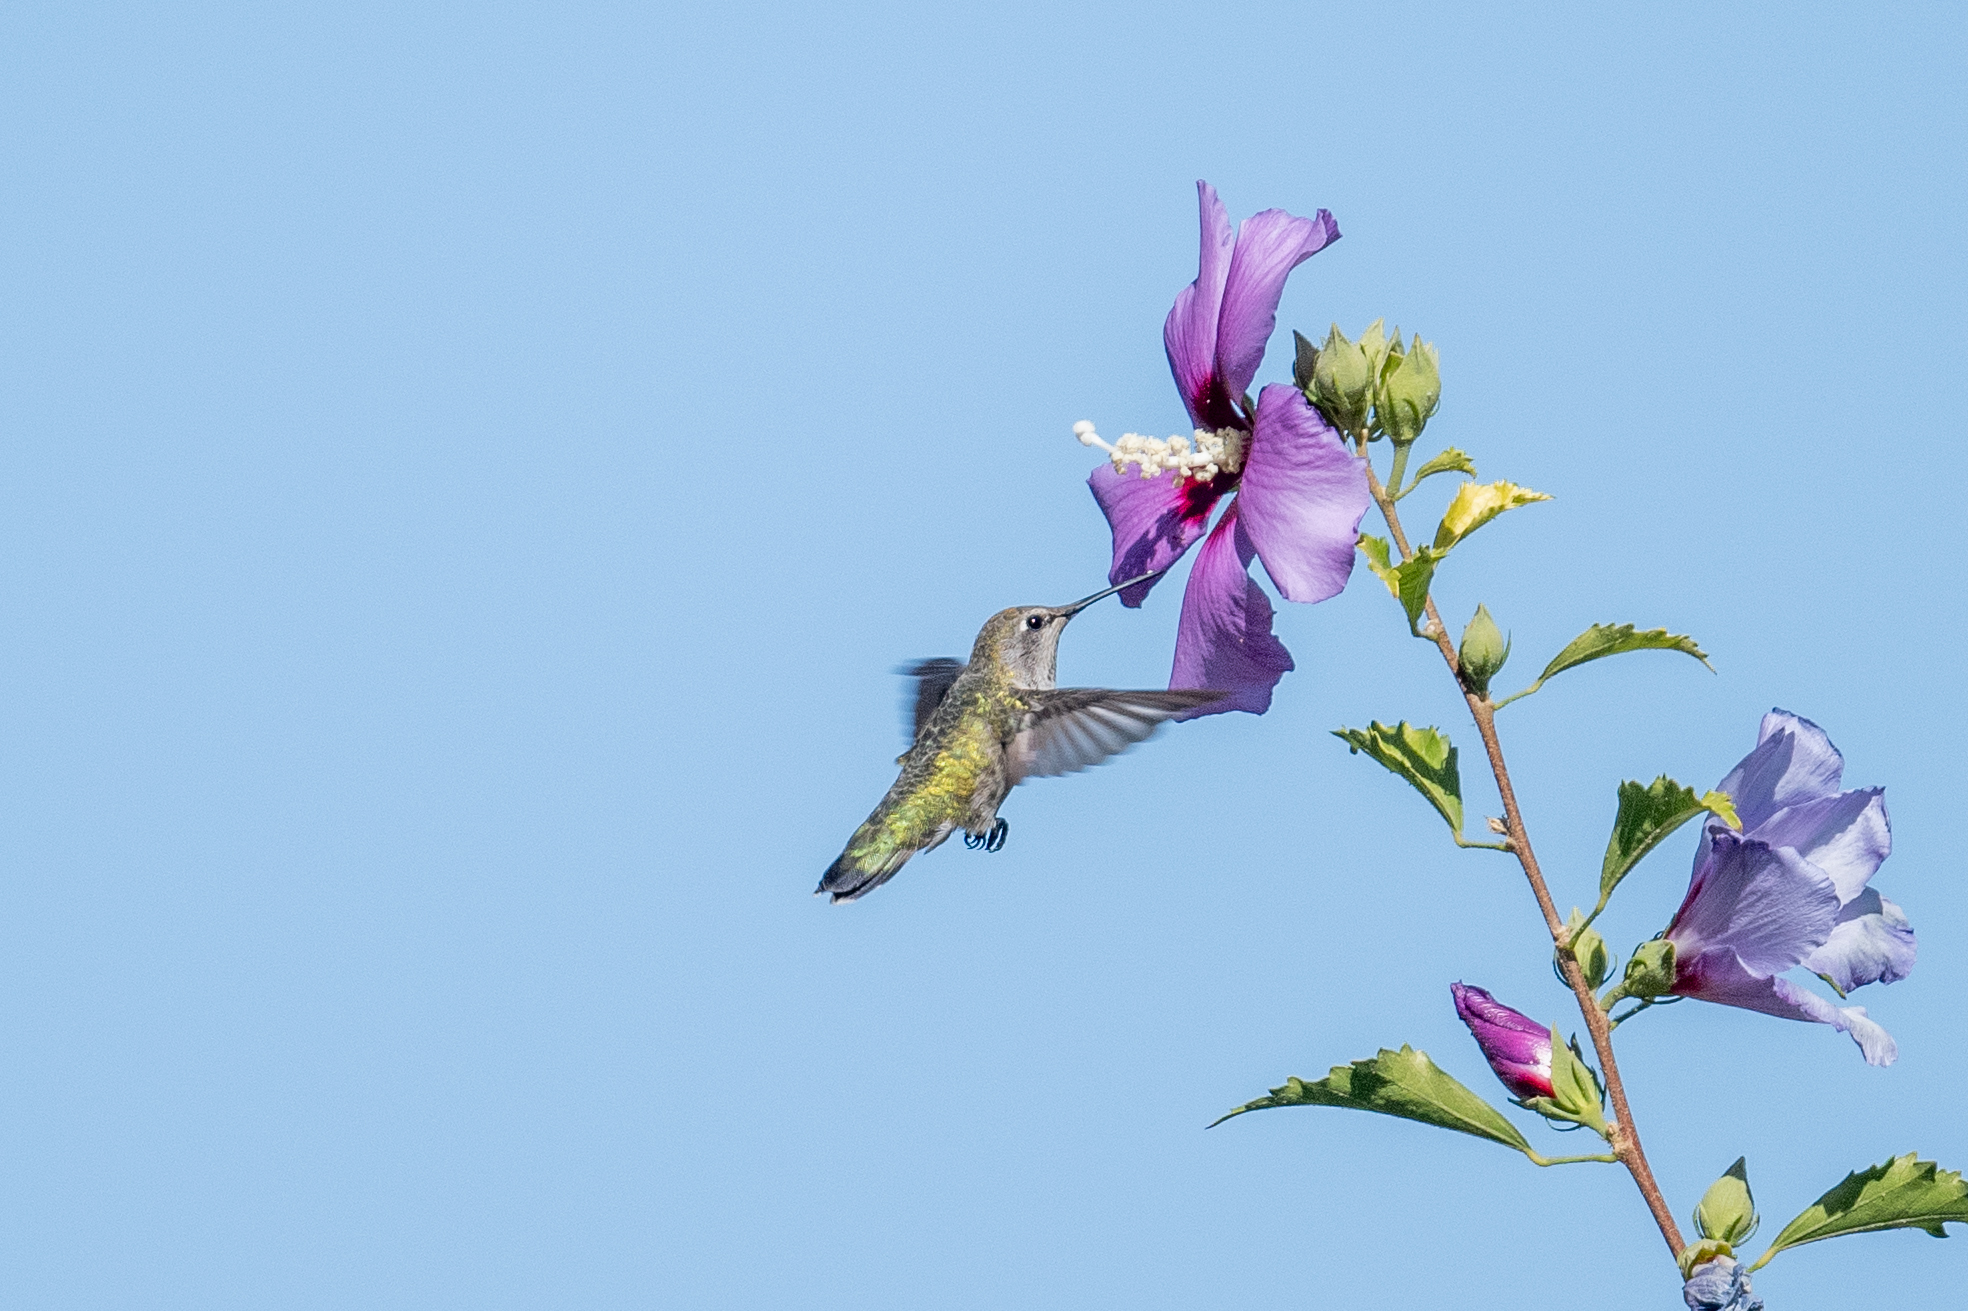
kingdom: Animalia
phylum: Chordata
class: Aves
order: Apodiformes
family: Trochilidae
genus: Calypte
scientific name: Calypte anna
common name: Anna's hummingbird
